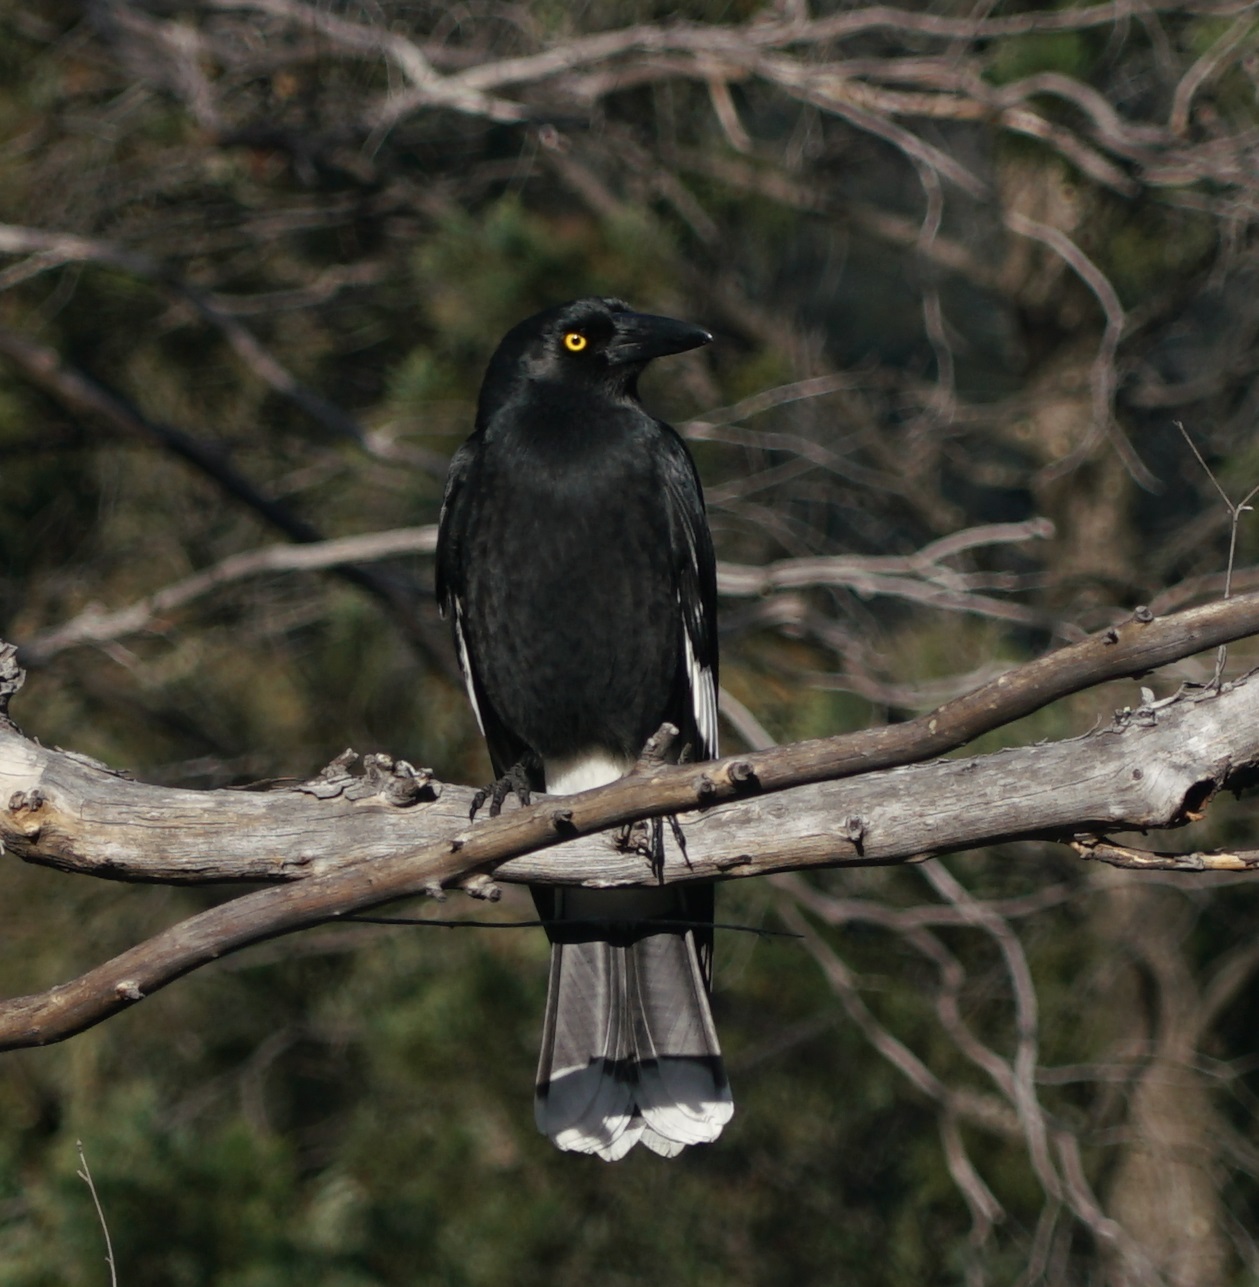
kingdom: Animalia
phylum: Chordata
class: Aves
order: Passeriformes
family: Cracticidae
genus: Strepera
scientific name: Strepera graculina
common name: Pied currawong
